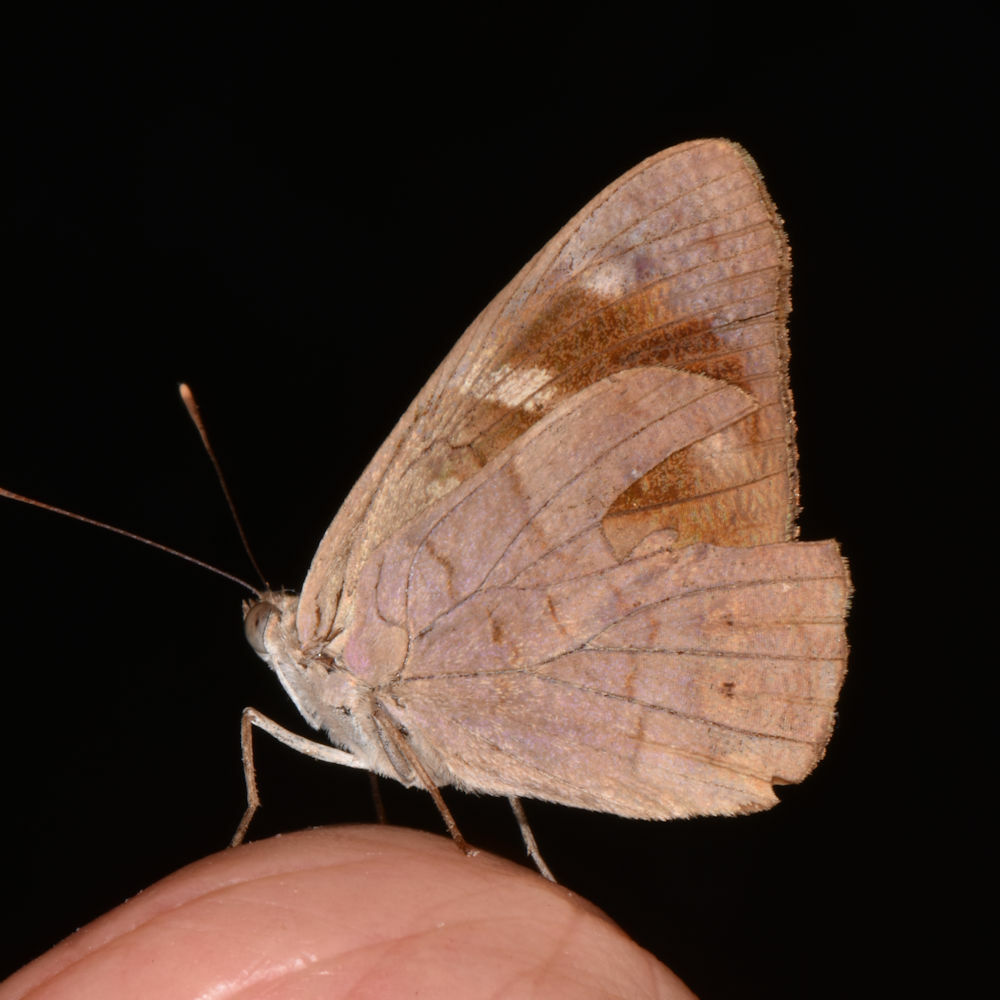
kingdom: Animalia
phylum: Arthropoda
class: Insecta
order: Lepidoptera
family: Nymphalidae
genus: Eunica
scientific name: Eunica monima
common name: Dingy purplewing
